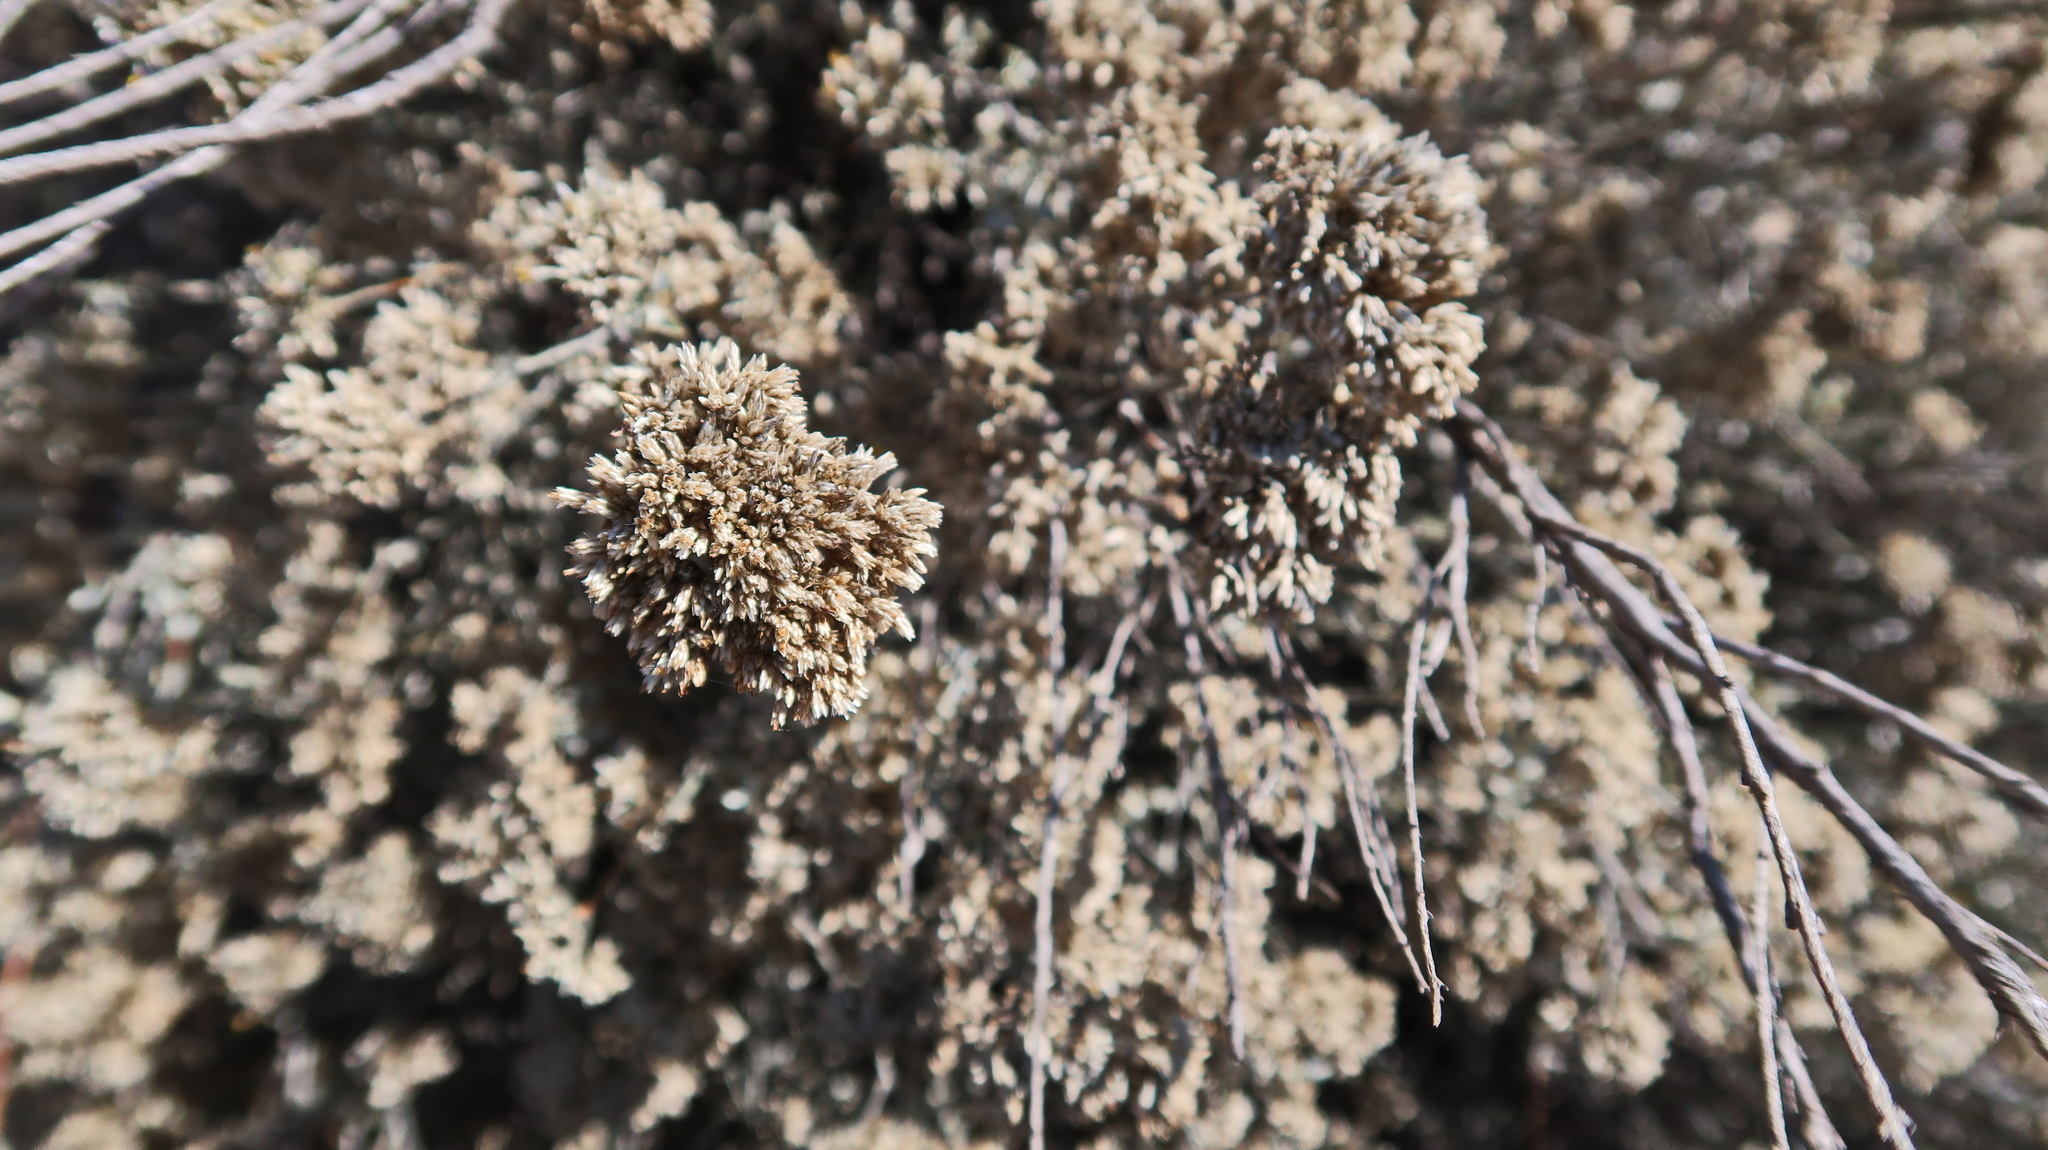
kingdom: Plantae
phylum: Tracheophyta
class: Magnoliopsida
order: Asterales
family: Asteraceae
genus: Helichrysum
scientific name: Helichrysum zeyheri
